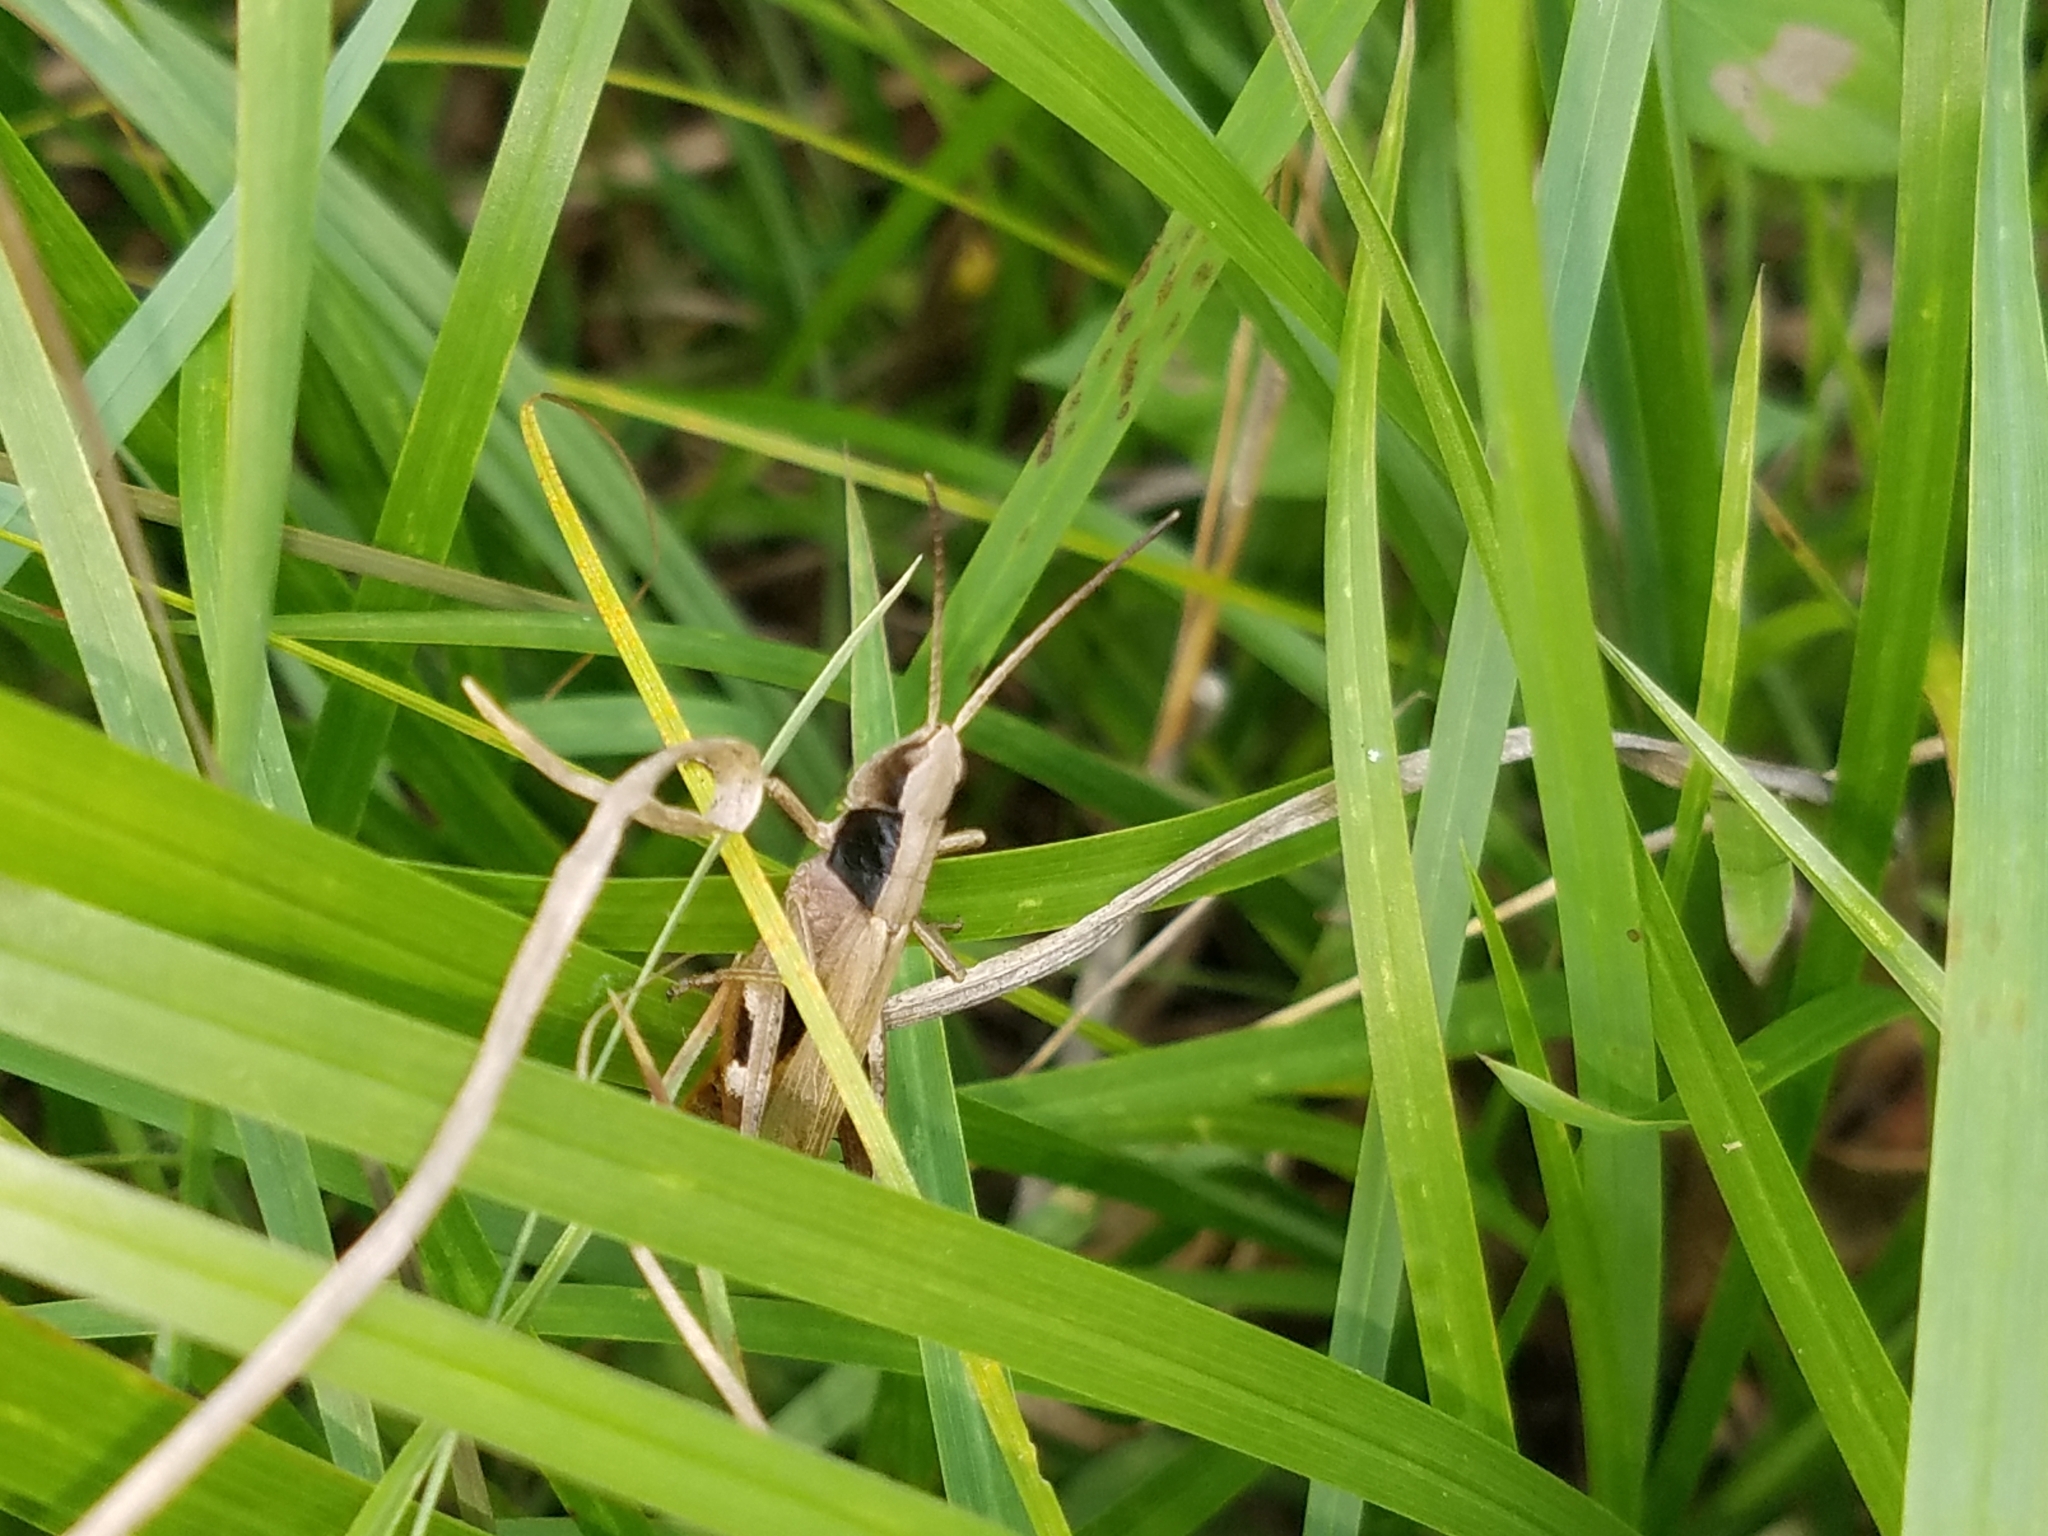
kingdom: Animalia
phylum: Arthropoda
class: Insecta
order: Orthoptera
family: Acrididae
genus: Chloealtis
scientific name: Chloealtis conspersa
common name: Sprinkled broad-winged grasshopper
